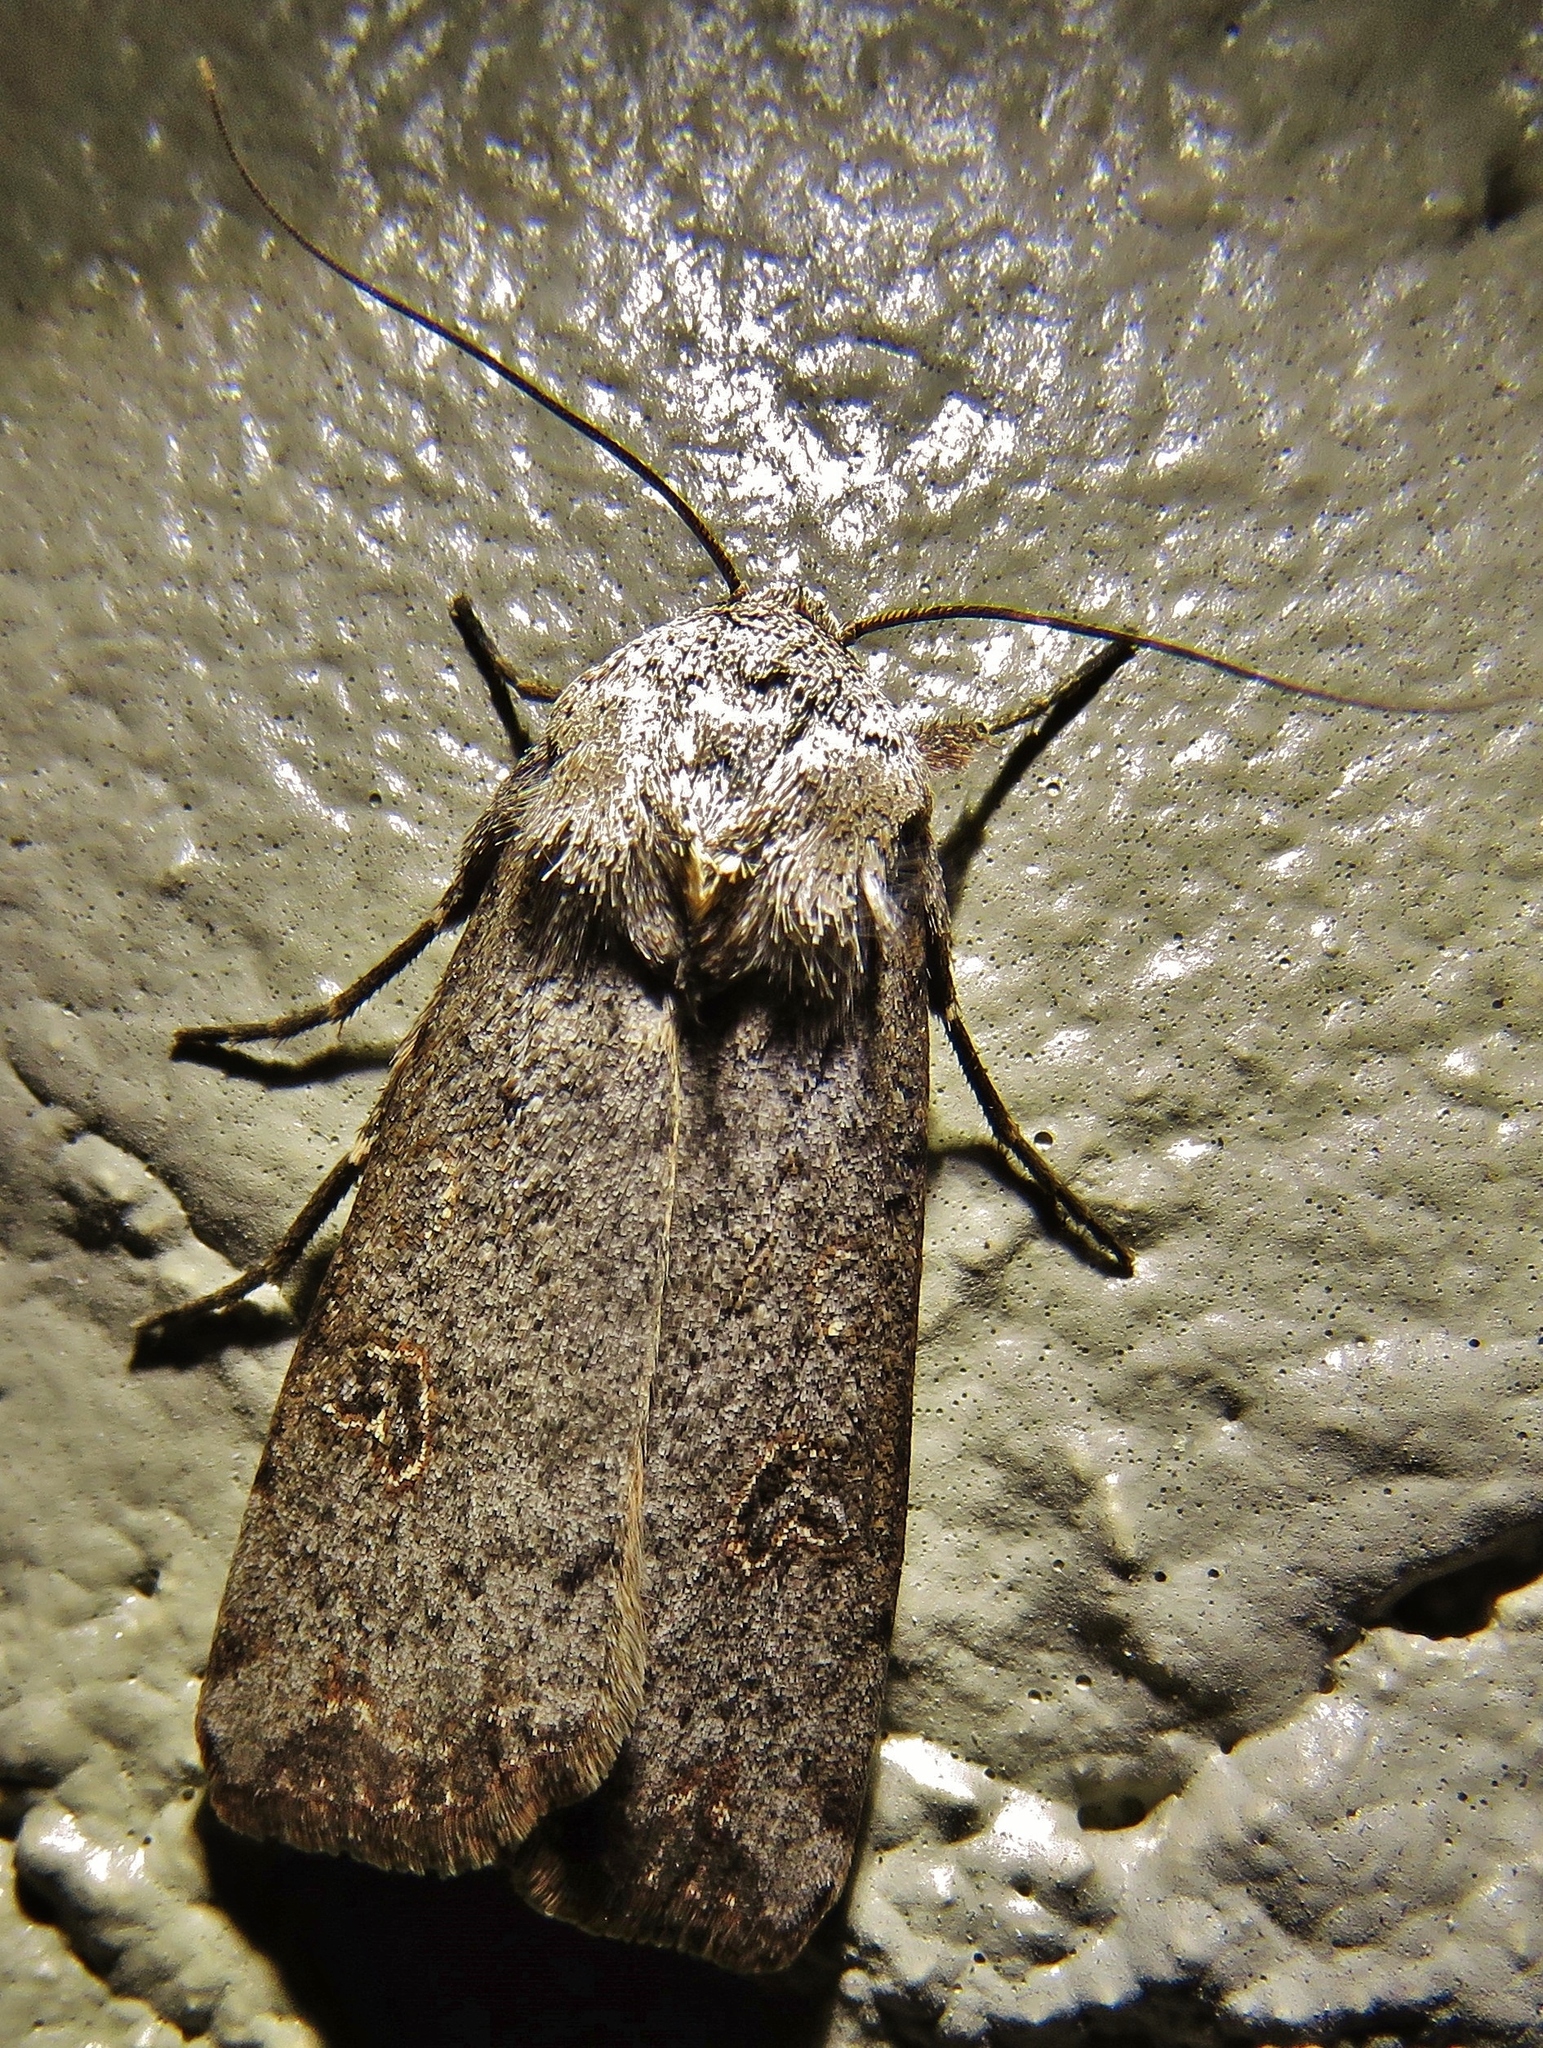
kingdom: Animalia
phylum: Arthropoda
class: Insecta
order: Lepidoptera
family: Noctuidae
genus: Anicla
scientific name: Anicla infecta
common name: Green cutworm
